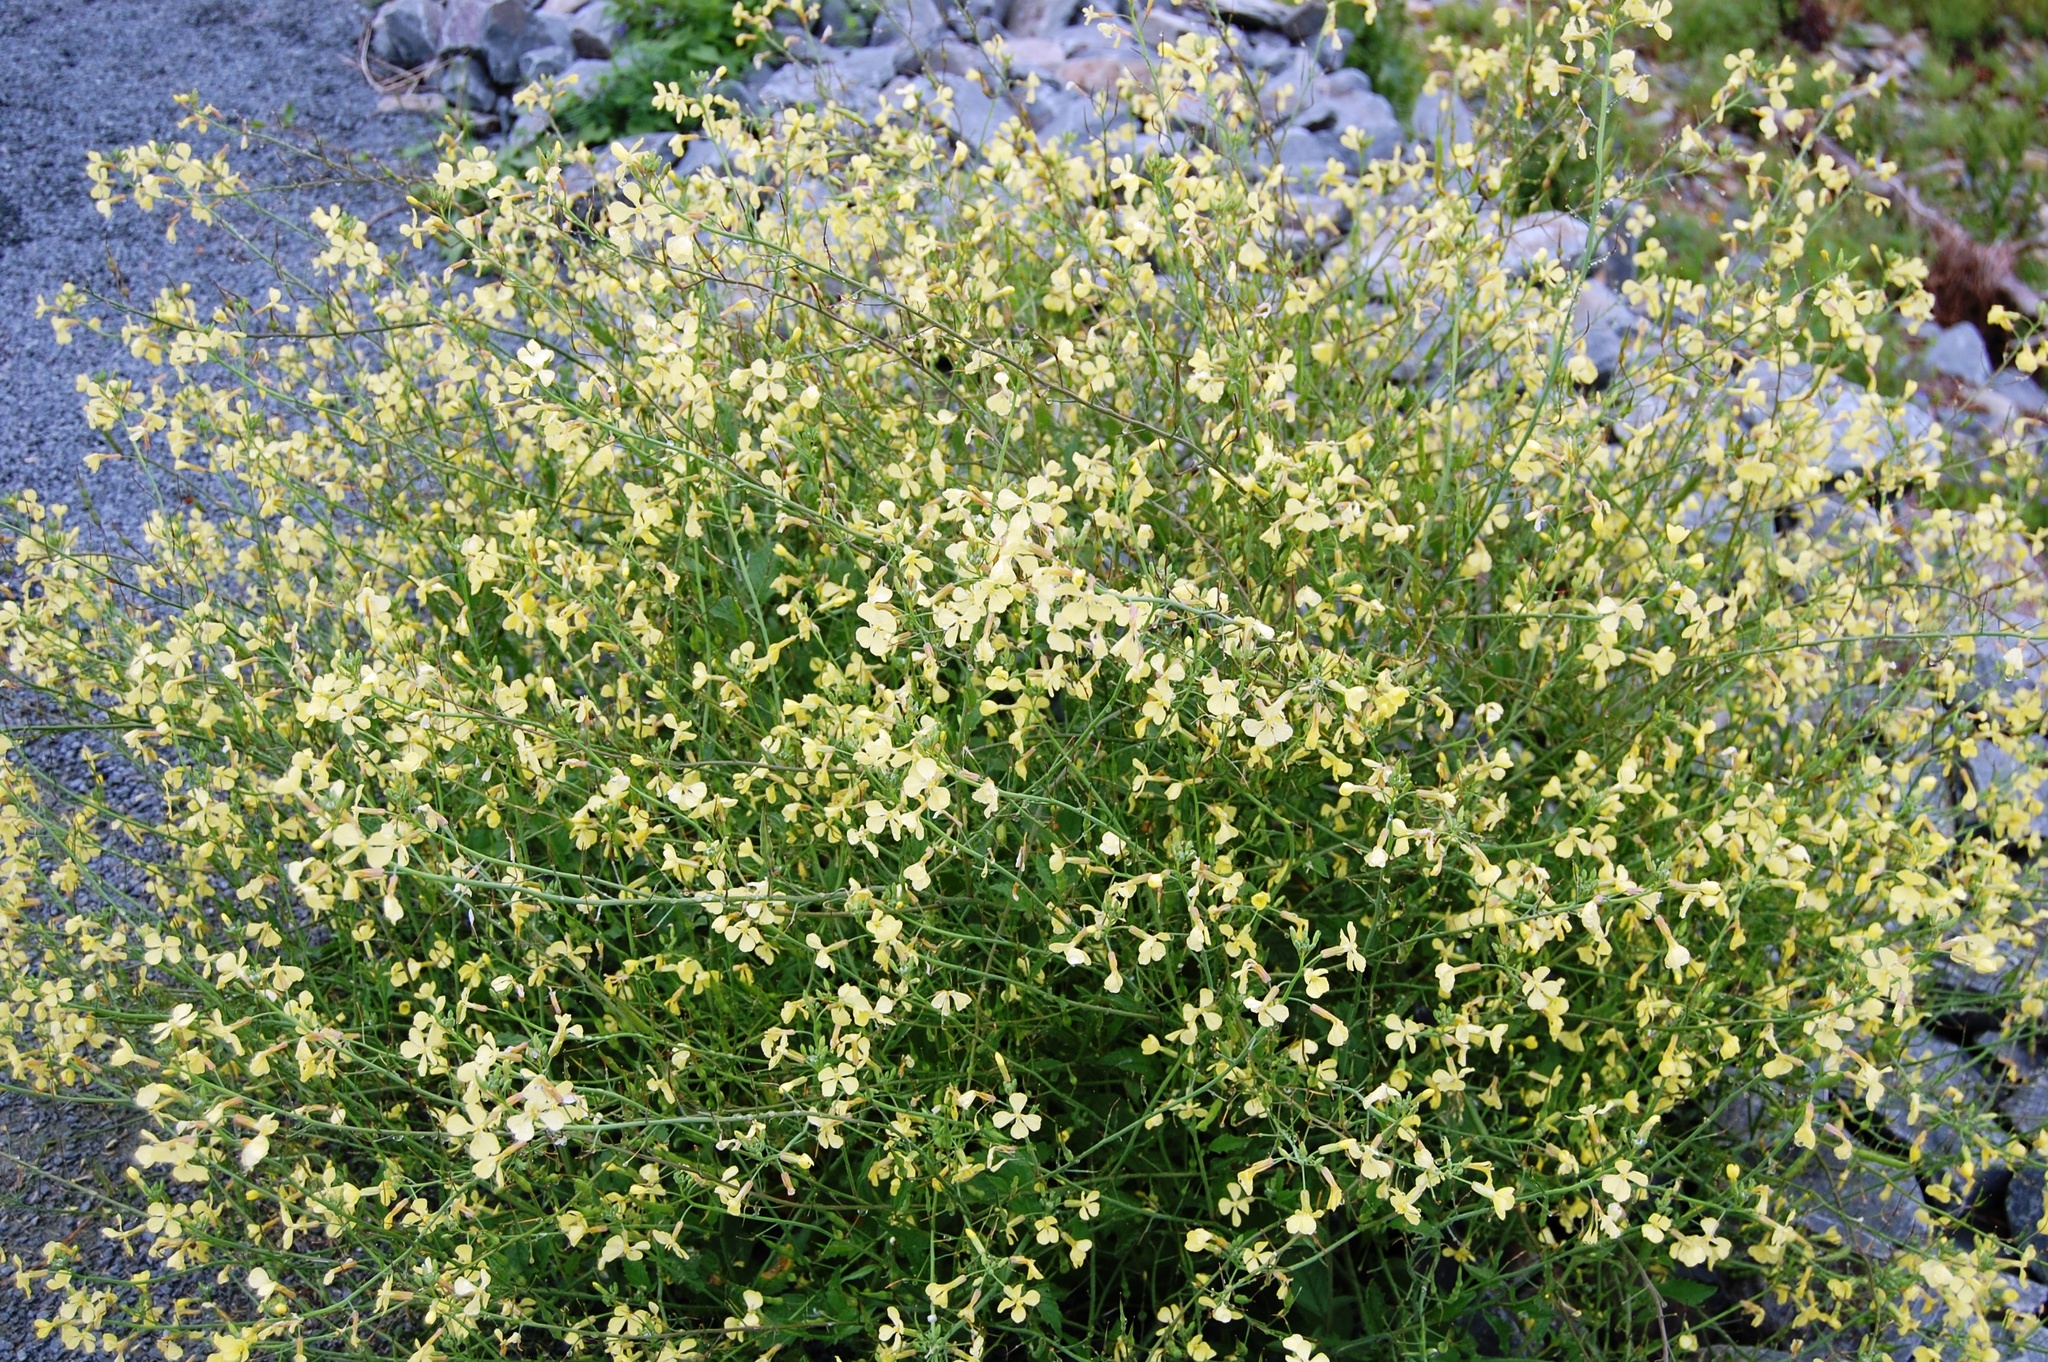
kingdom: Plantae
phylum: Tracheophyta
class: Magnoliopsida
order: Brassicales
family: Brassicaceae
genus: Raphanus
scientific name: Raphanus raphanistrum
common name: Wild radish
